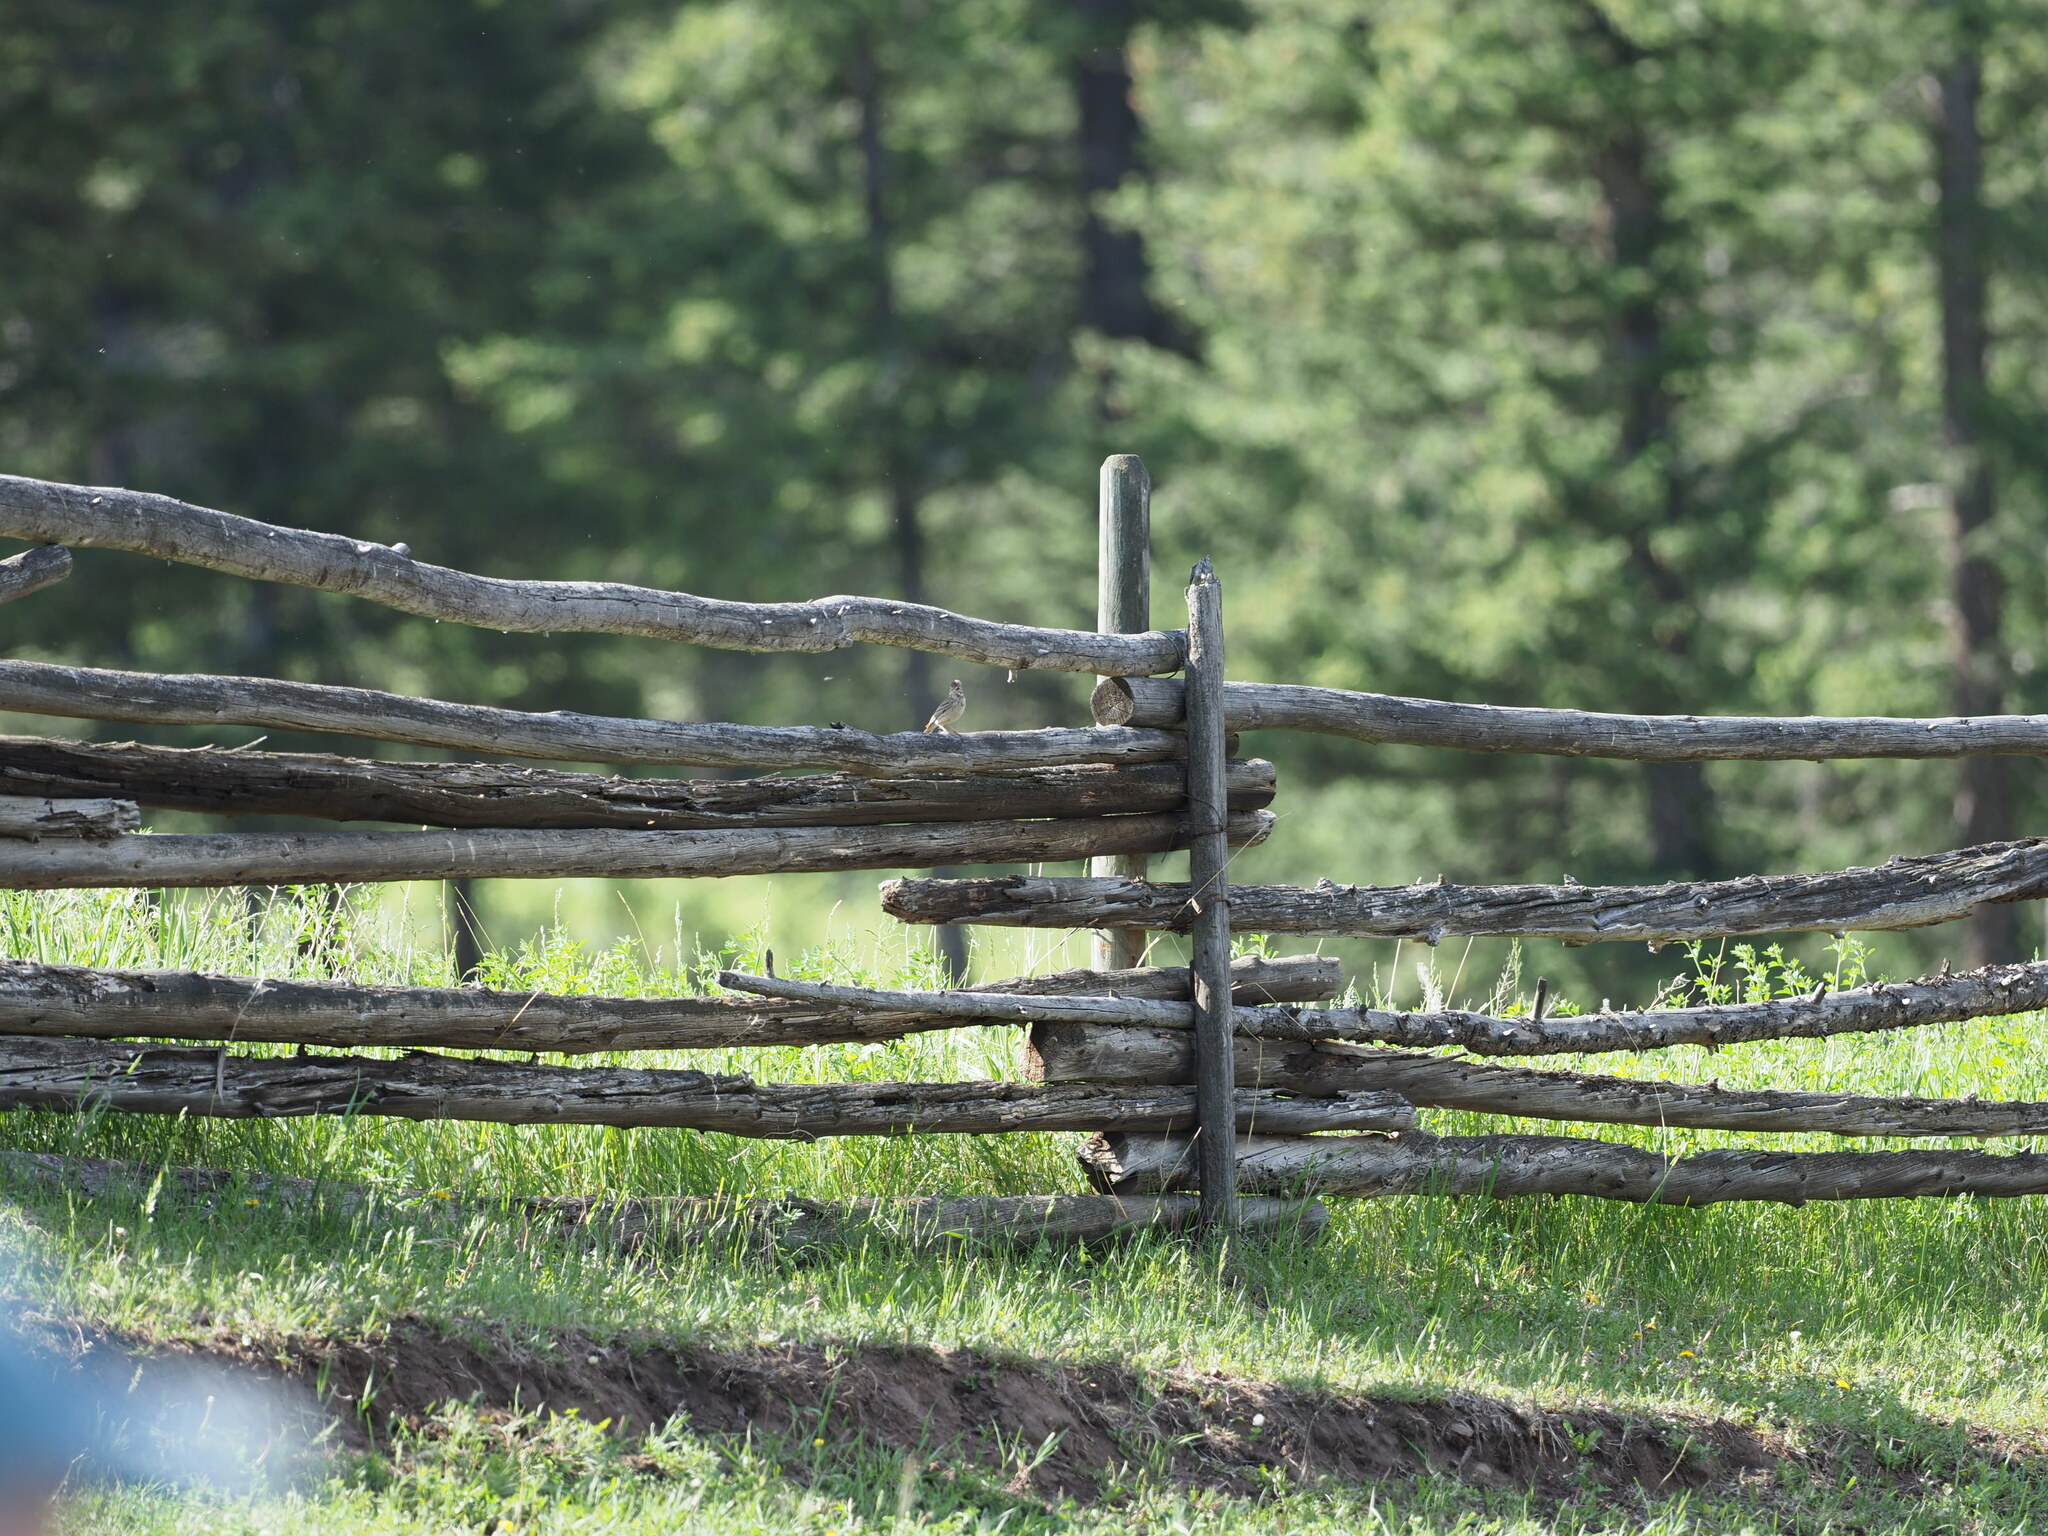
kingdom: Animalia
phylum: Chordata
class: Aves
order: Passeriformes
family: Passerellidae
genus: Pooecetes
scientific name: Pooecetes gramineus
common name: Vesper sparrow
